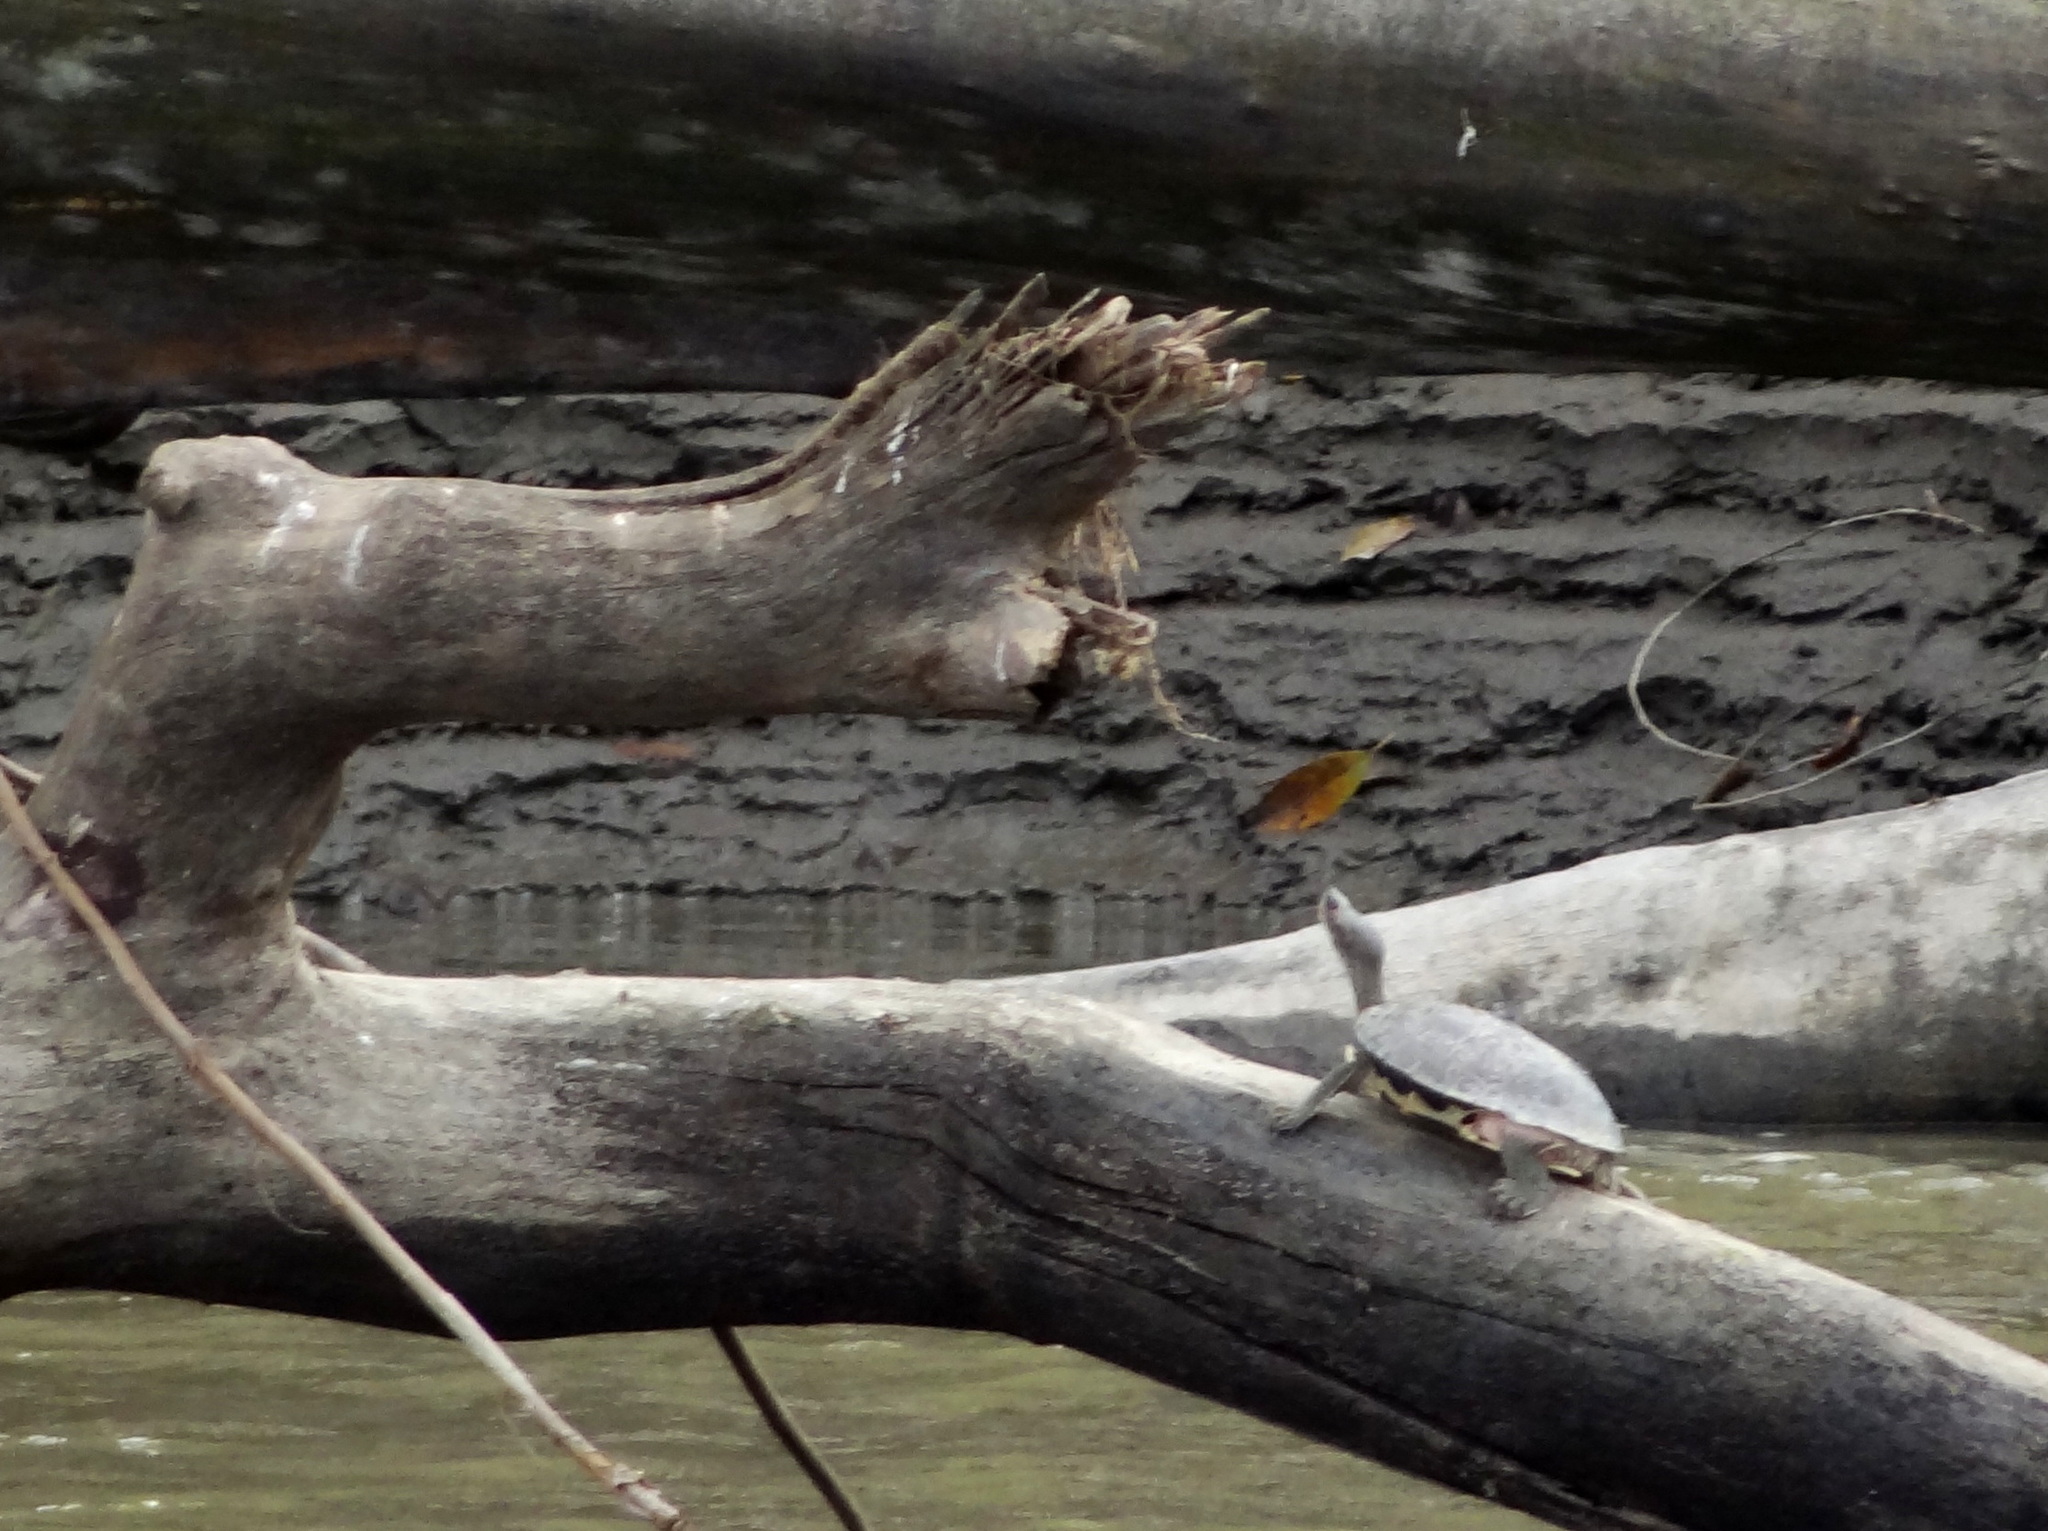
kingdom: Animalia
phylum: Chordata
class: Testudines
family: Geoemydidae
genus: Pangshura
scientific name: Pangshura tecta
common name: Indian roofed turtle
